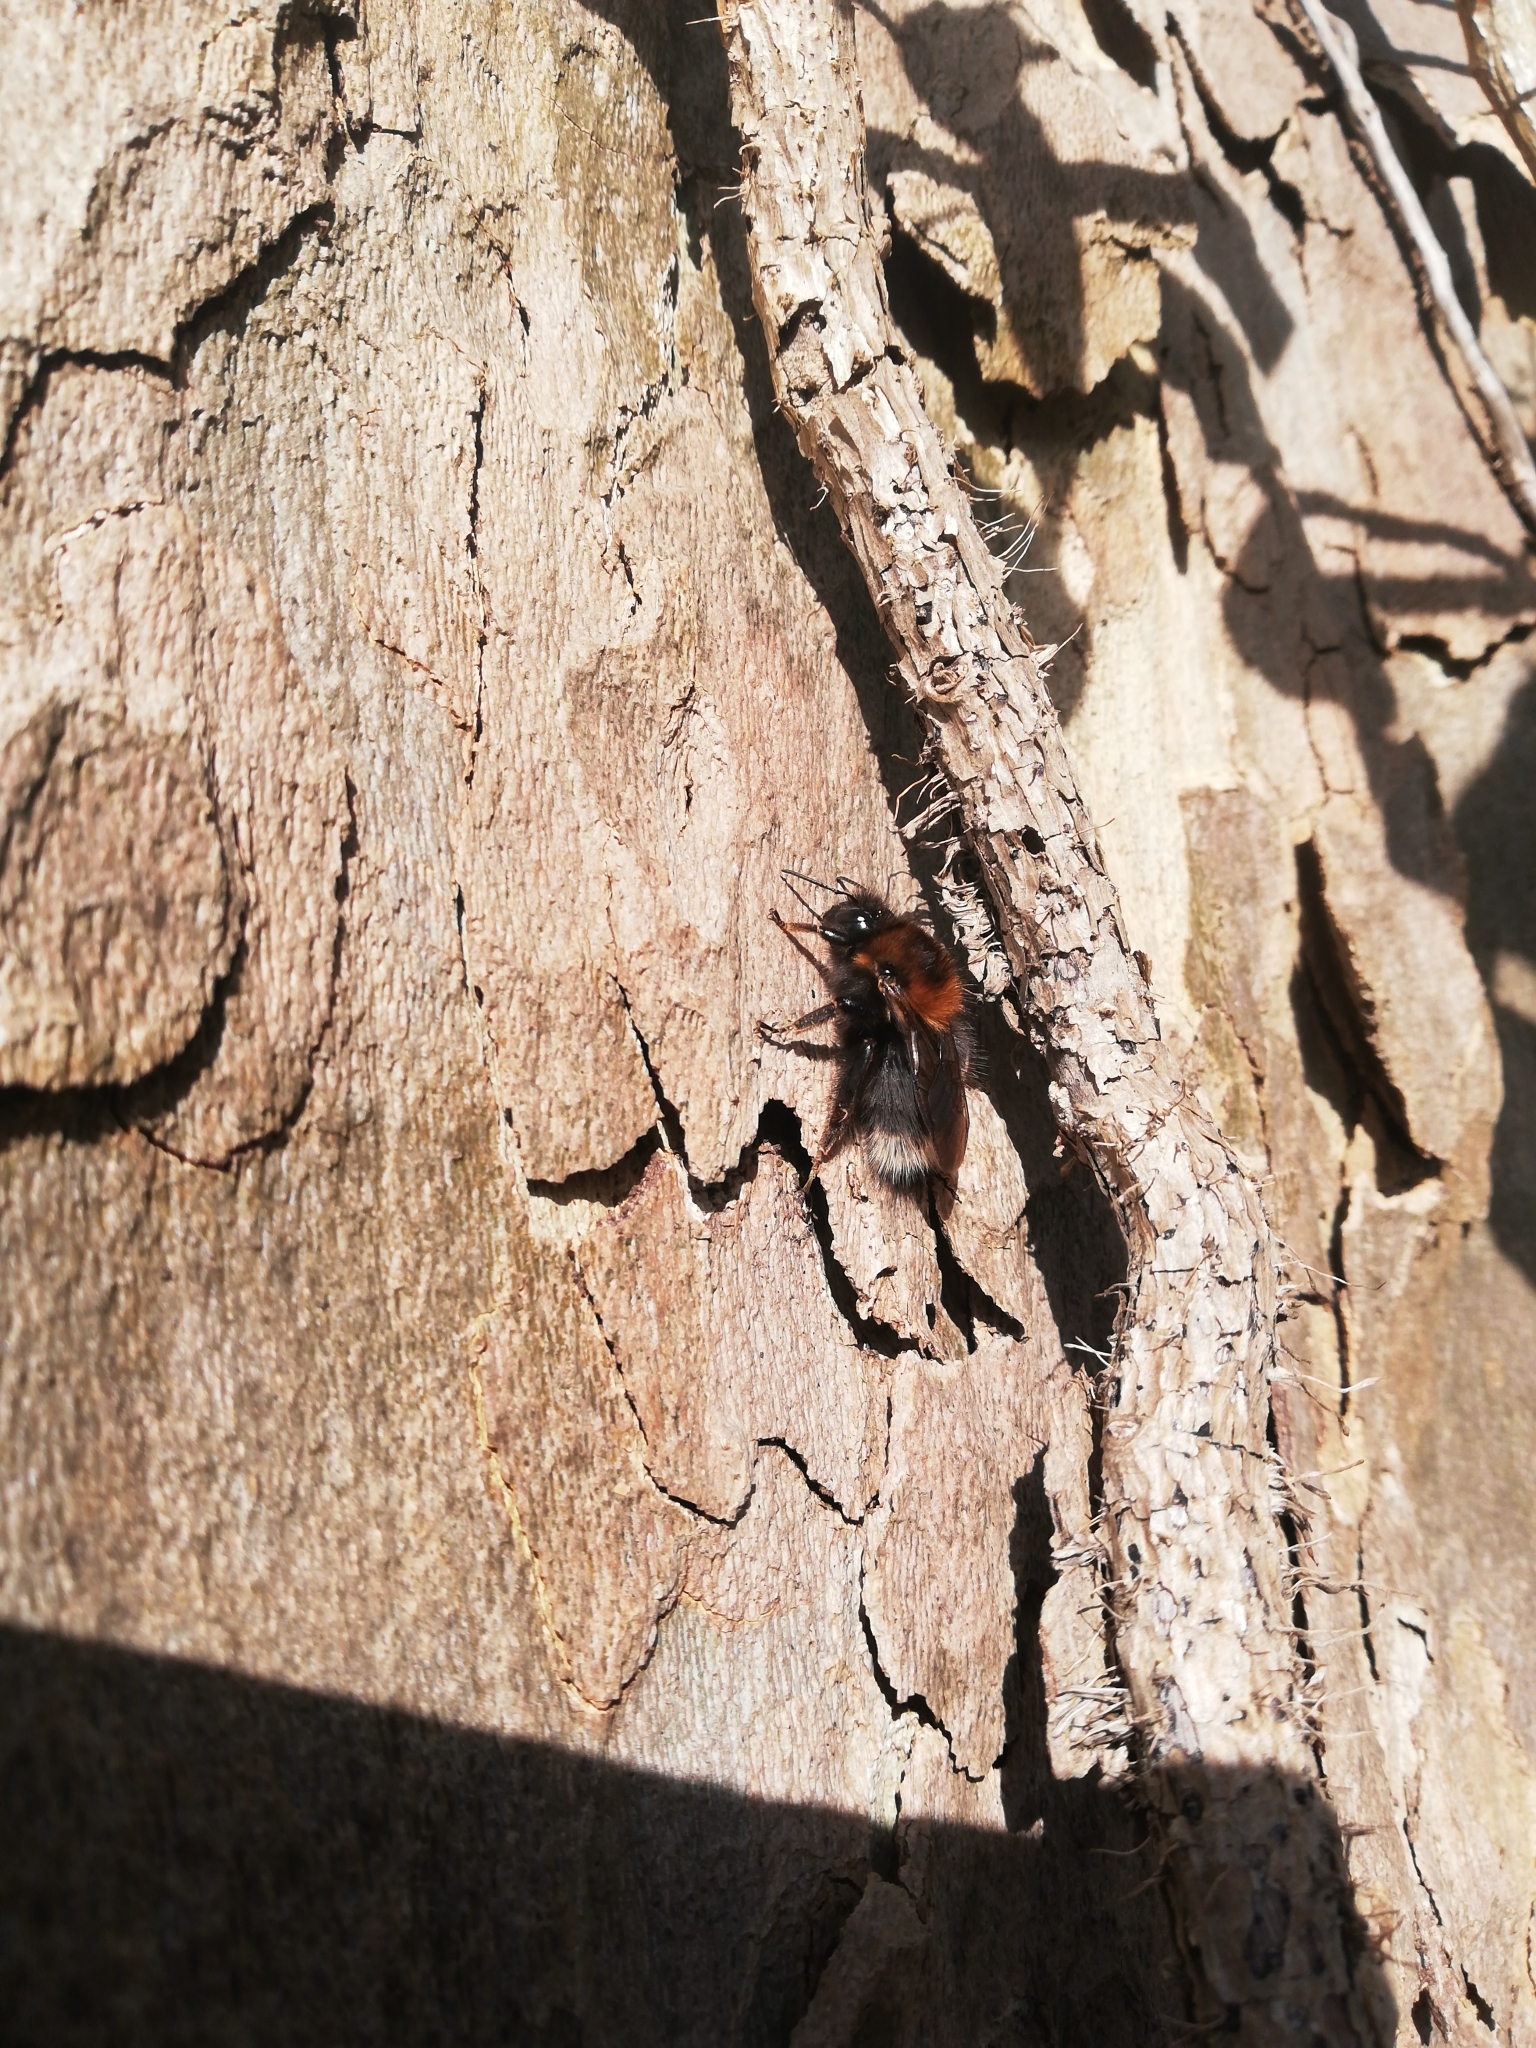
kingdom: Animalia
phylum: Arthropoda
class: Insecta
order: Hymenoptera
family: Apidae
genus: Bombus
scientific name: Bombus hypnorum
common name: New garden bumblebee
